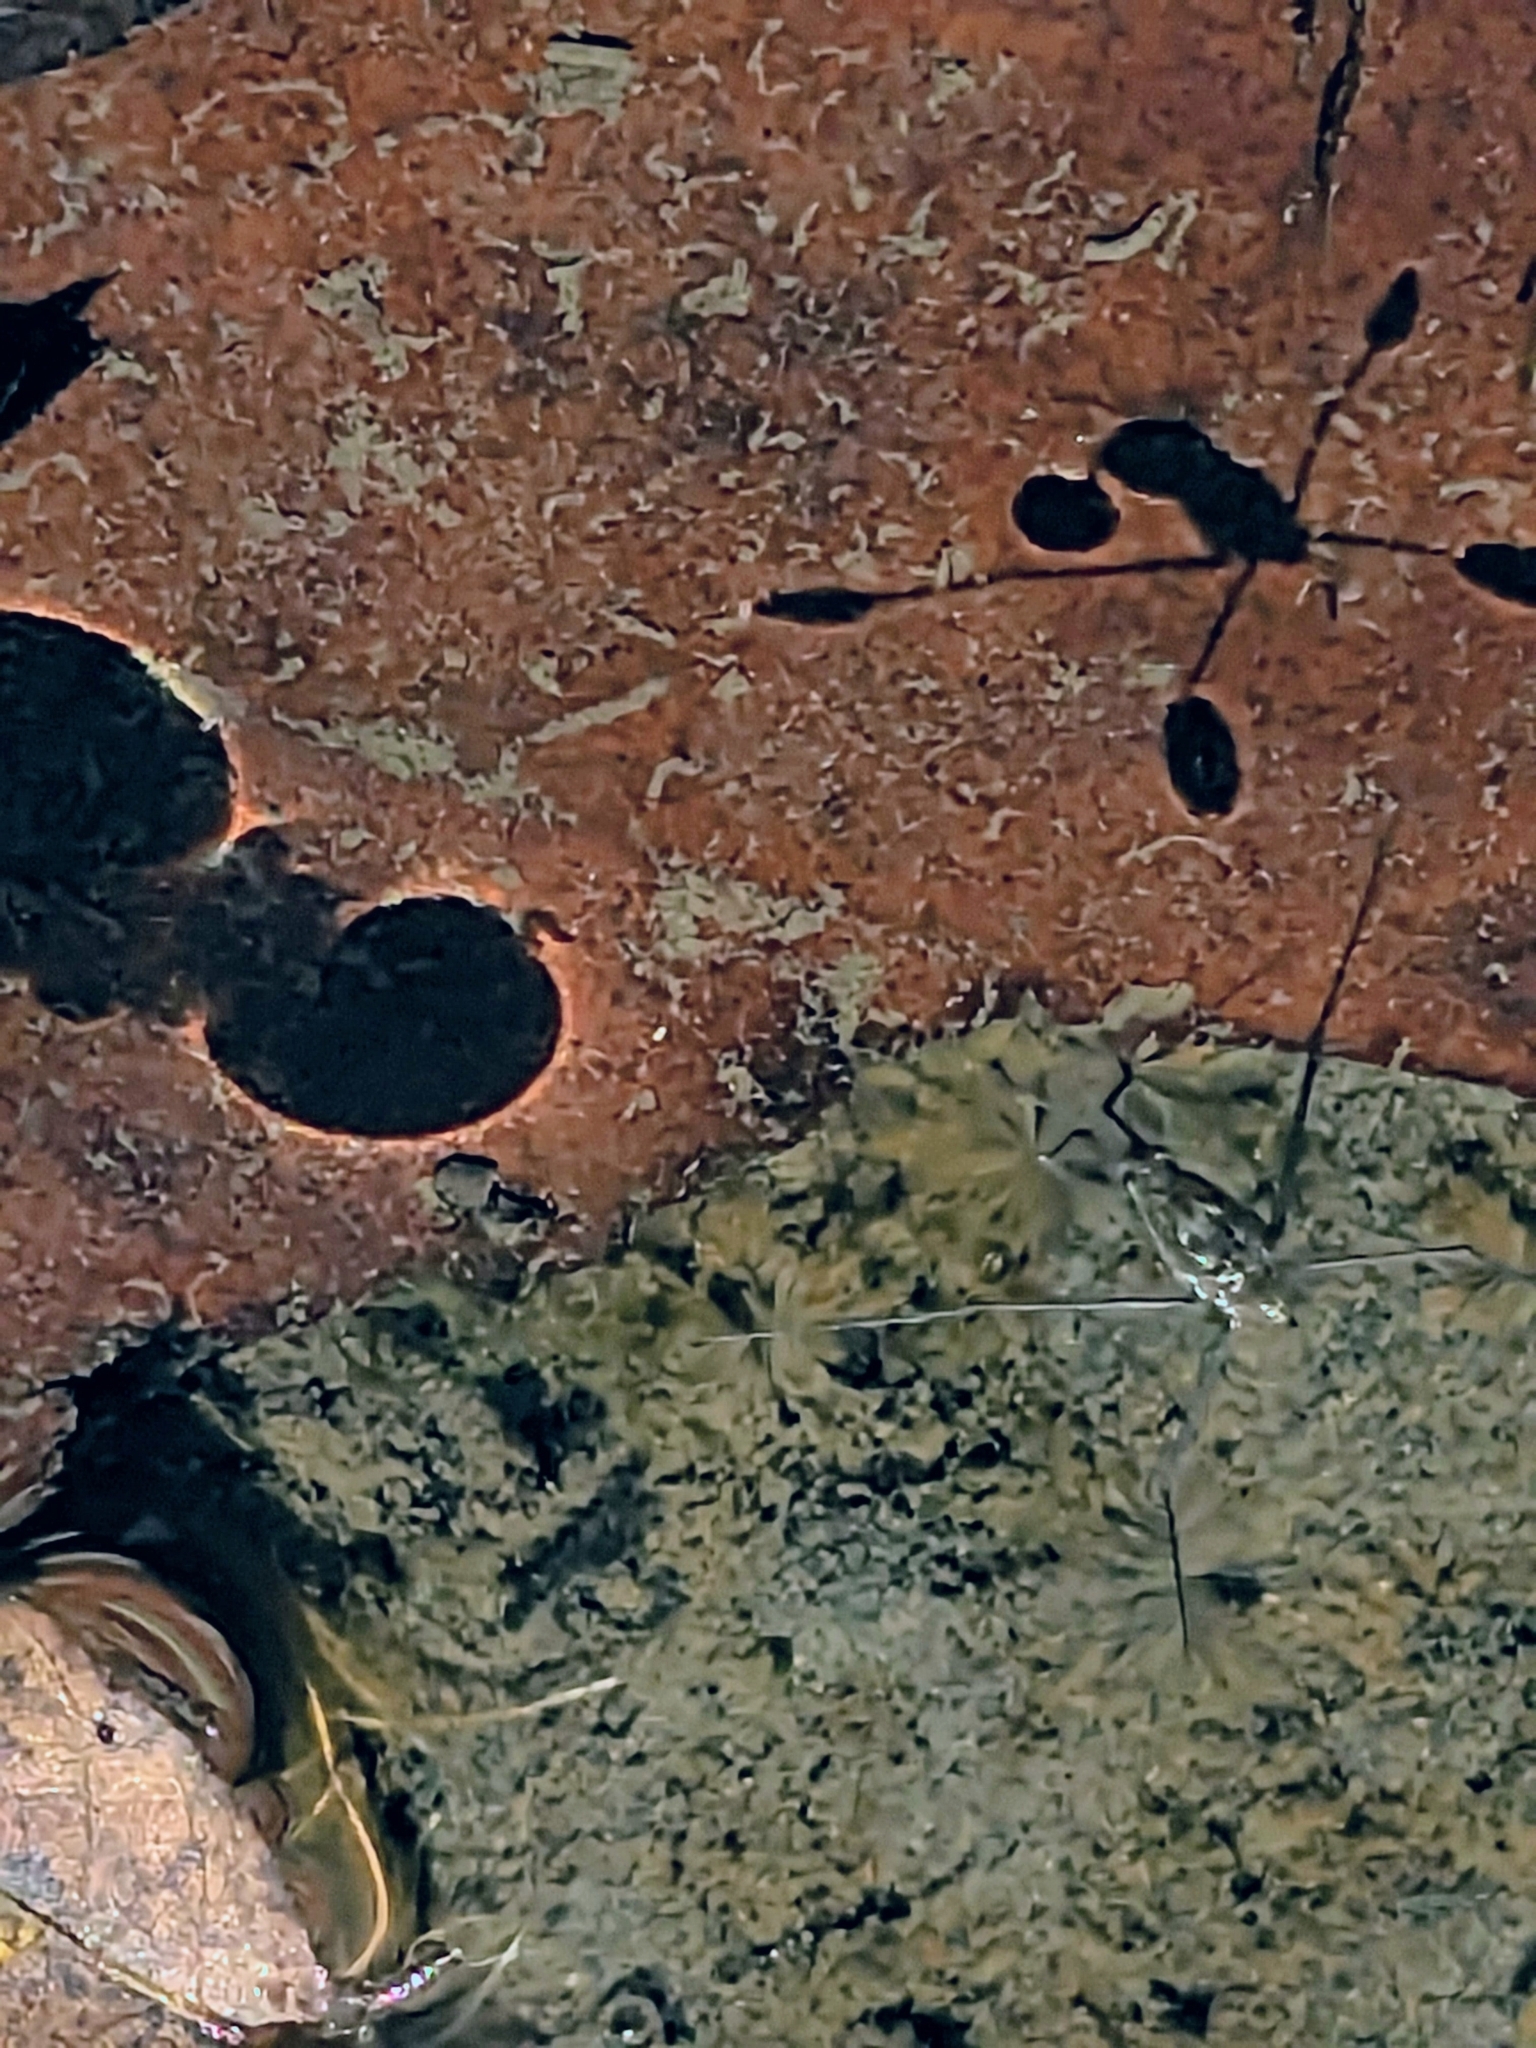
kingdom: Animalia
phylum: Arthropoda
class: Insecta
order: Hemiptera
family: Gerridae
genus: Aquarius
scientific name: Aquarius remigis
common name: Common water strider
